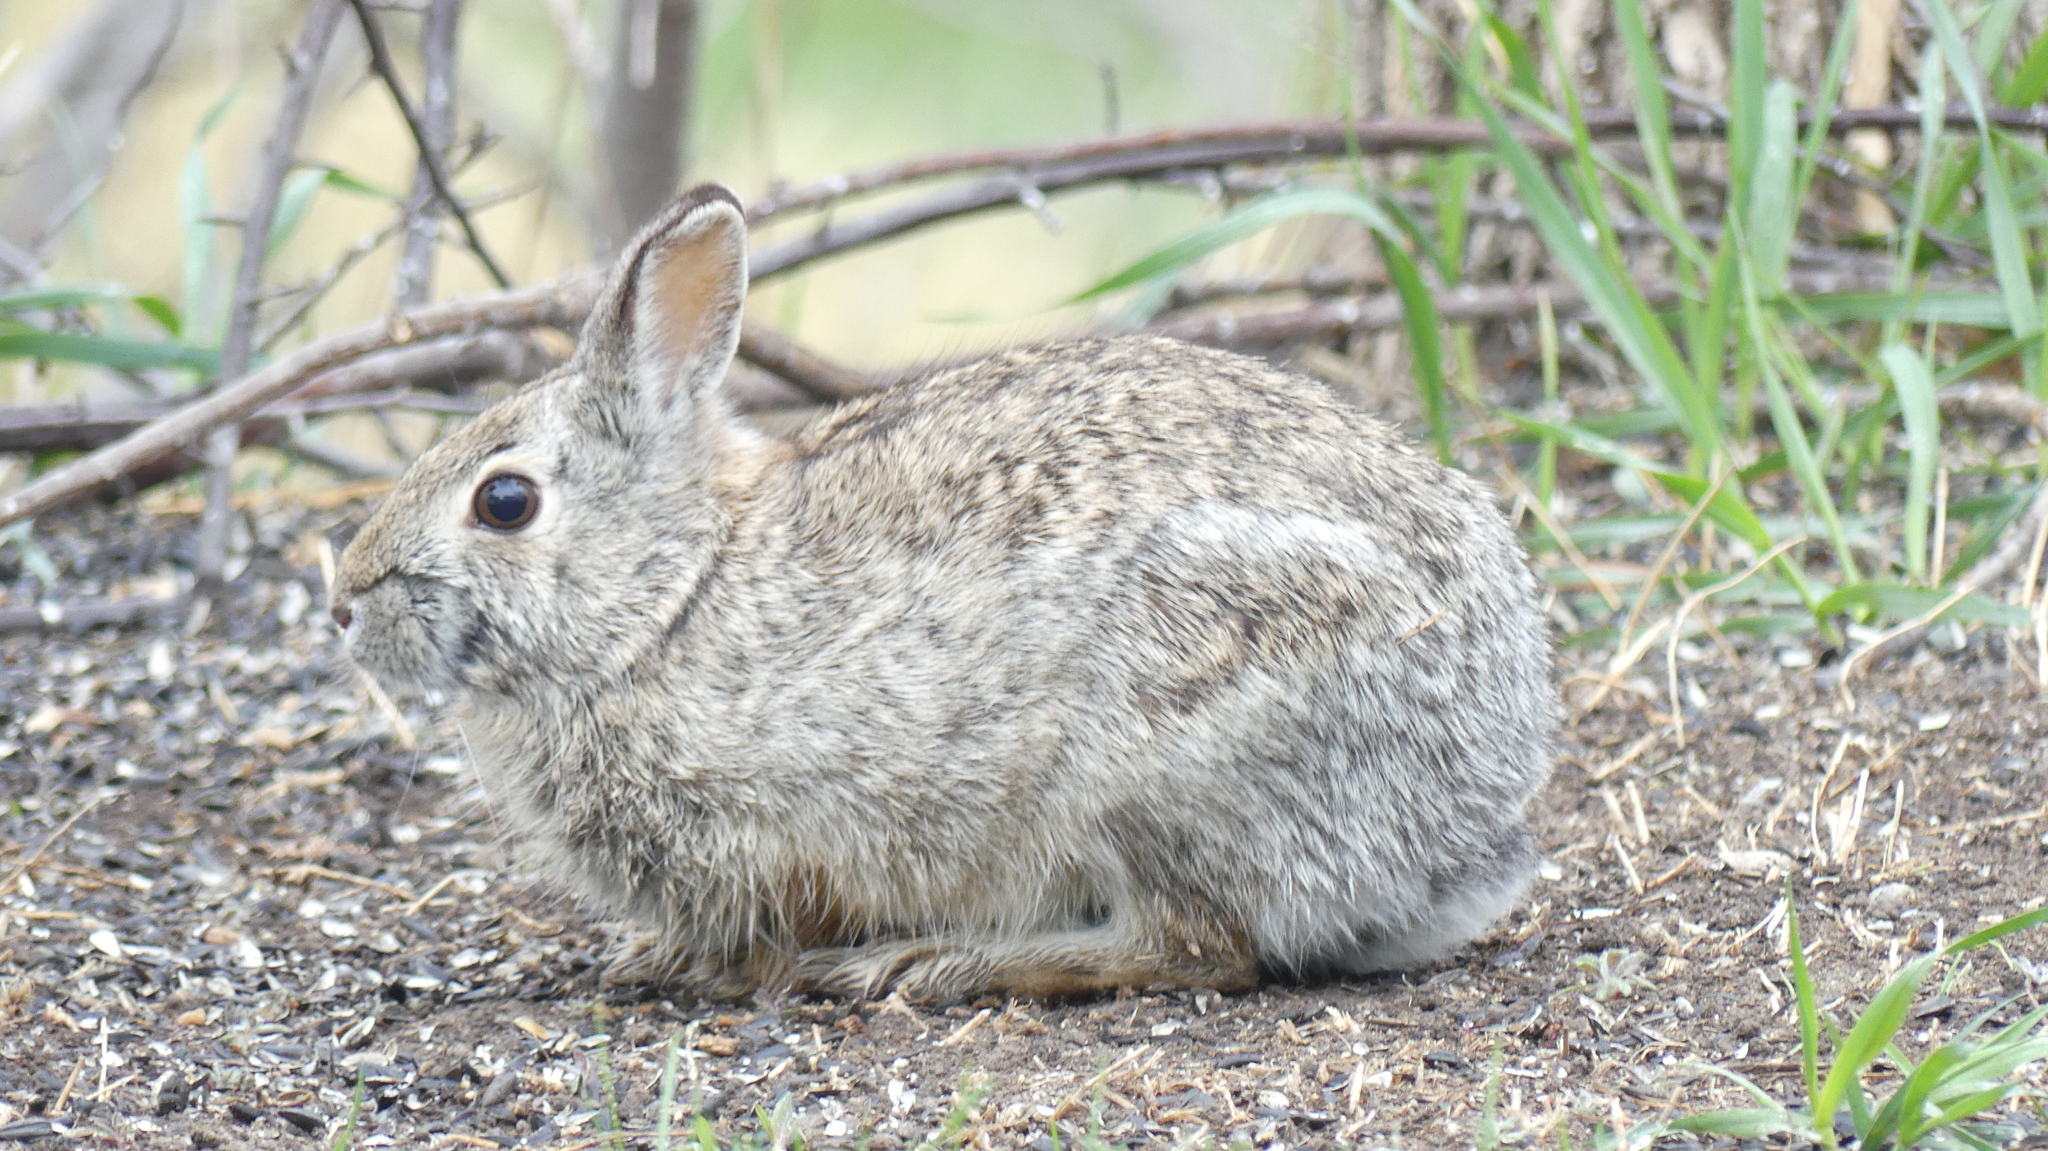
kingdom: Animalia
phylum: Chordata
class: Mammalia
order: Lagomorpha
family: Leporidae
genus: Sylvilagus
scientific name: Sylvilagus floridanus
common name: Eastern cottontail
